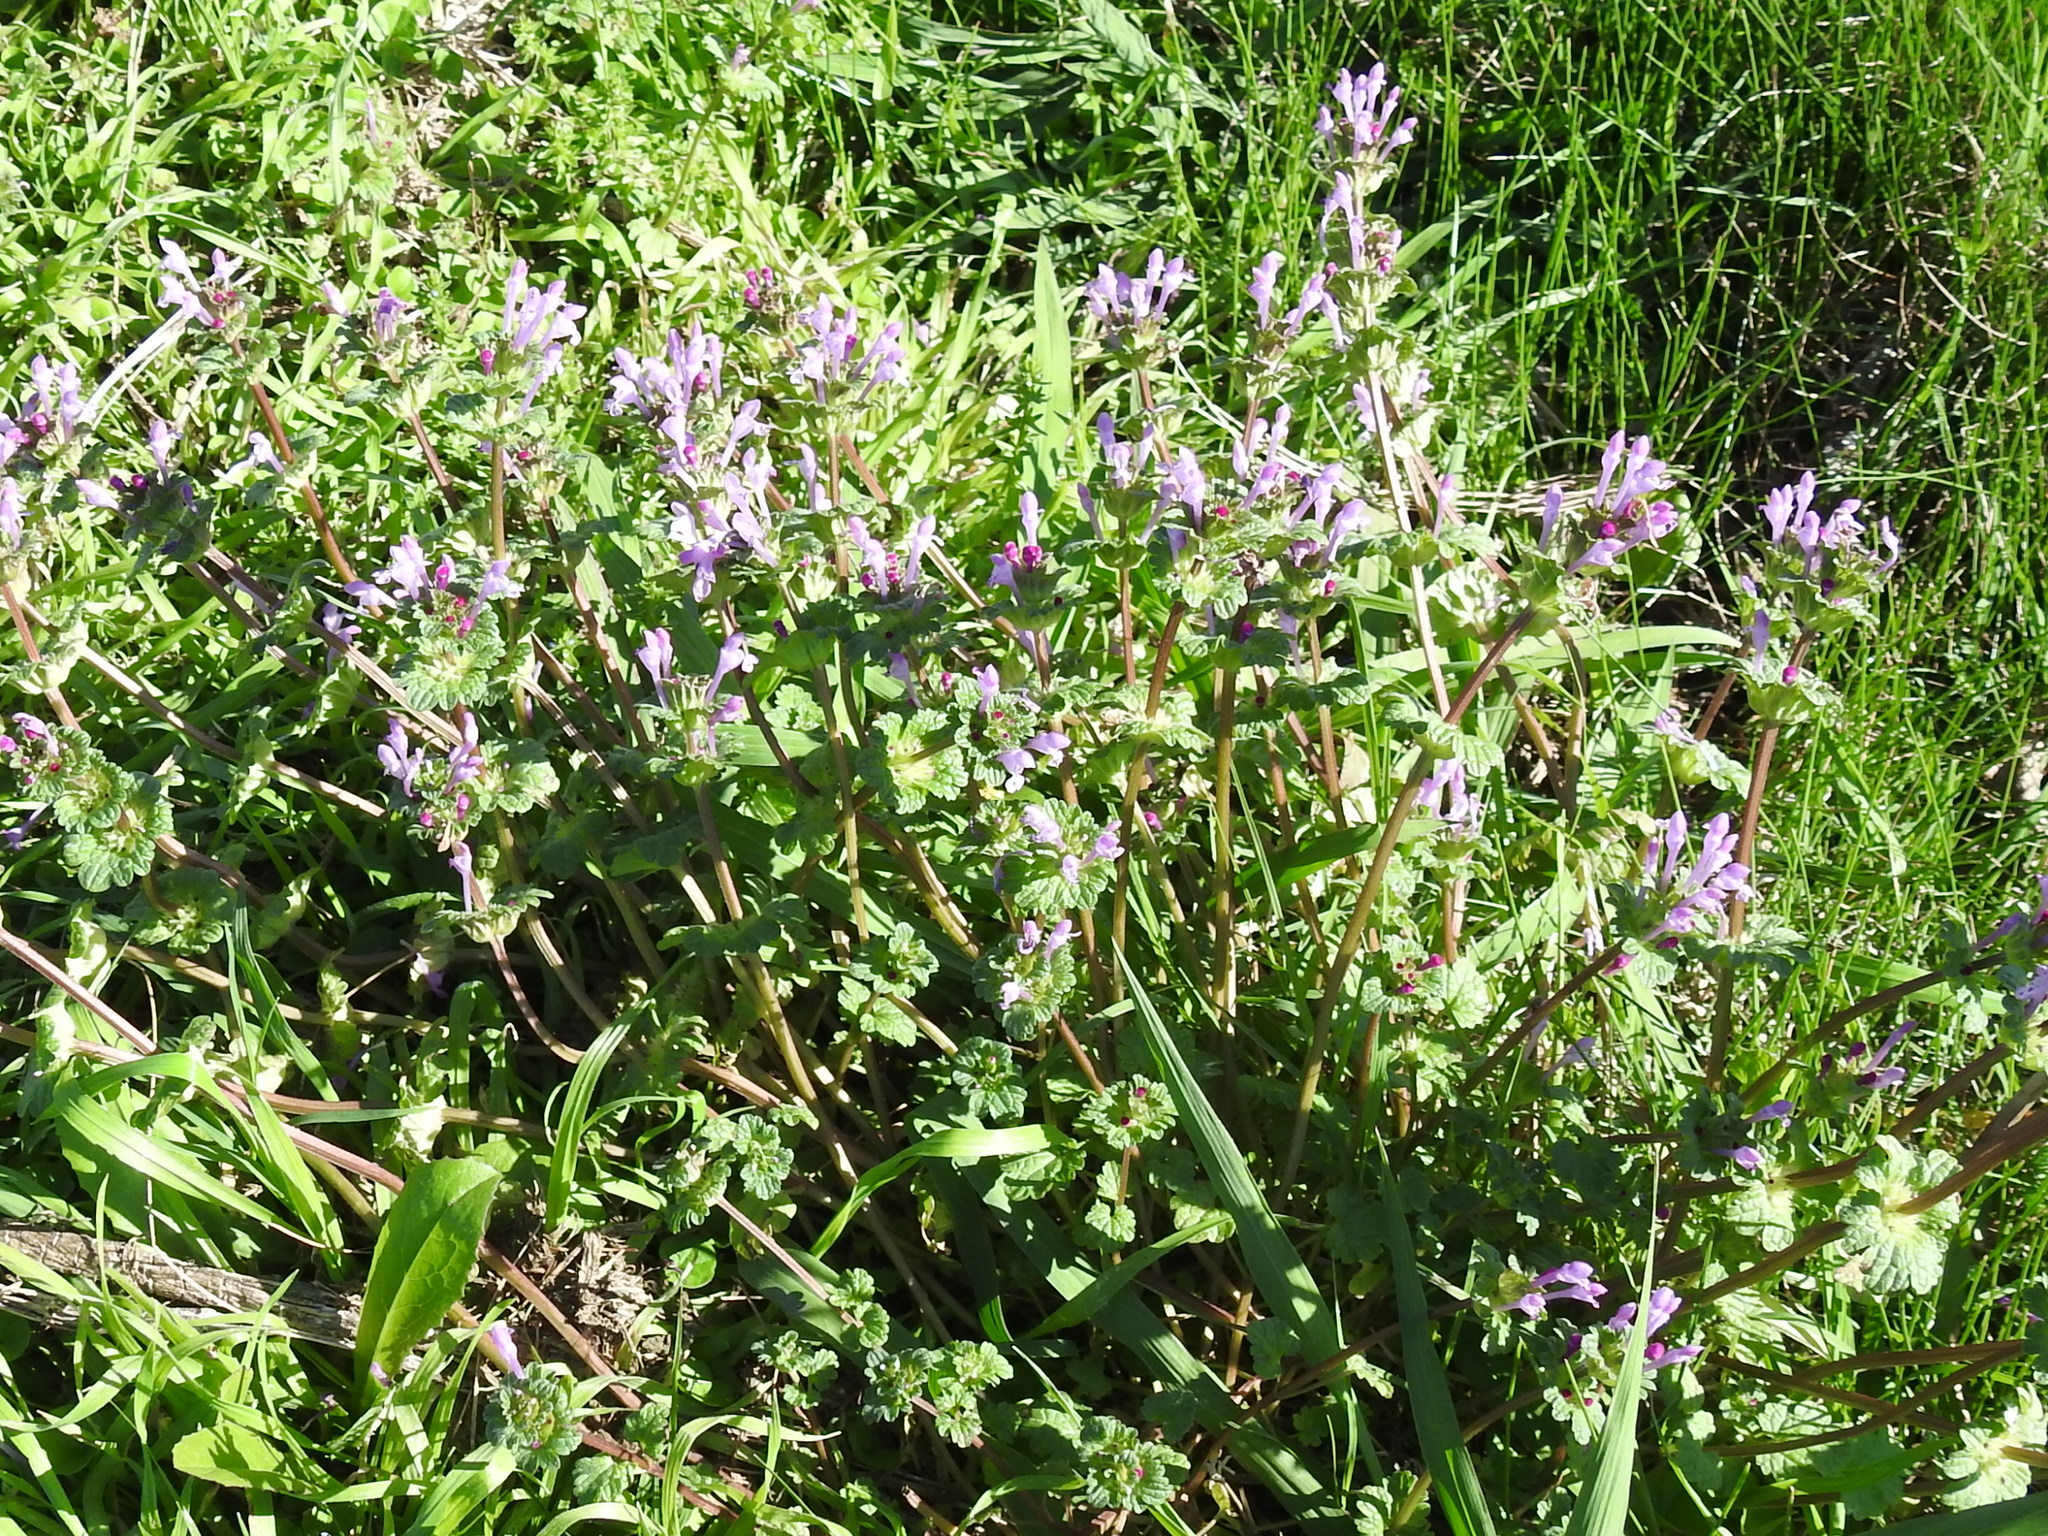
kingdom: Plantae
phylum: Tracheophyta
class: Magnoliopsida
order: Lamiales
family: Lamiaceae
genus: Lamium
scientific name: Lamium amplexicaule
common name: Henbit dead-nettle
